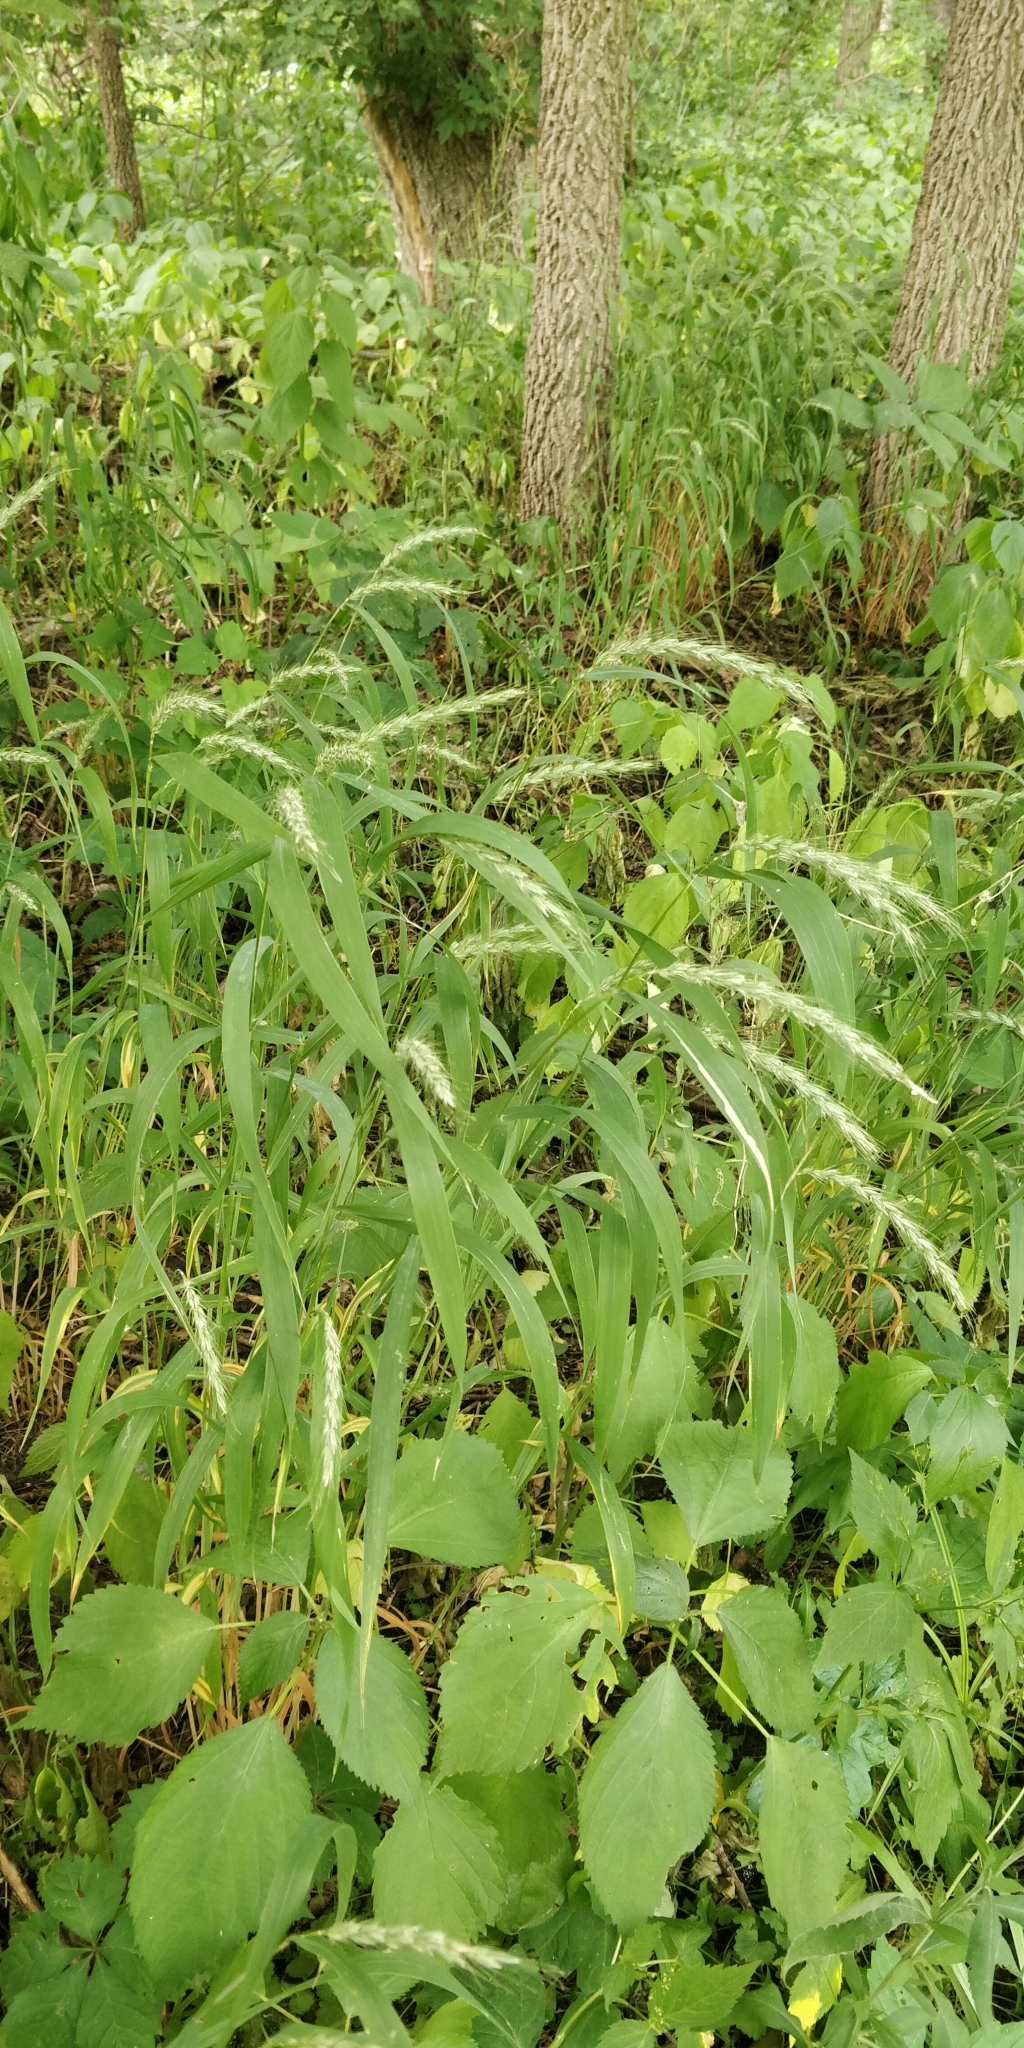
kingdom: Plantae
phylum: Tracheophyta
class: Liliopsida
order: Poales
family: Poaceae
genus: Elymus
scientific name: Elymus riparius
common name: Eastern riverbank wild rye
